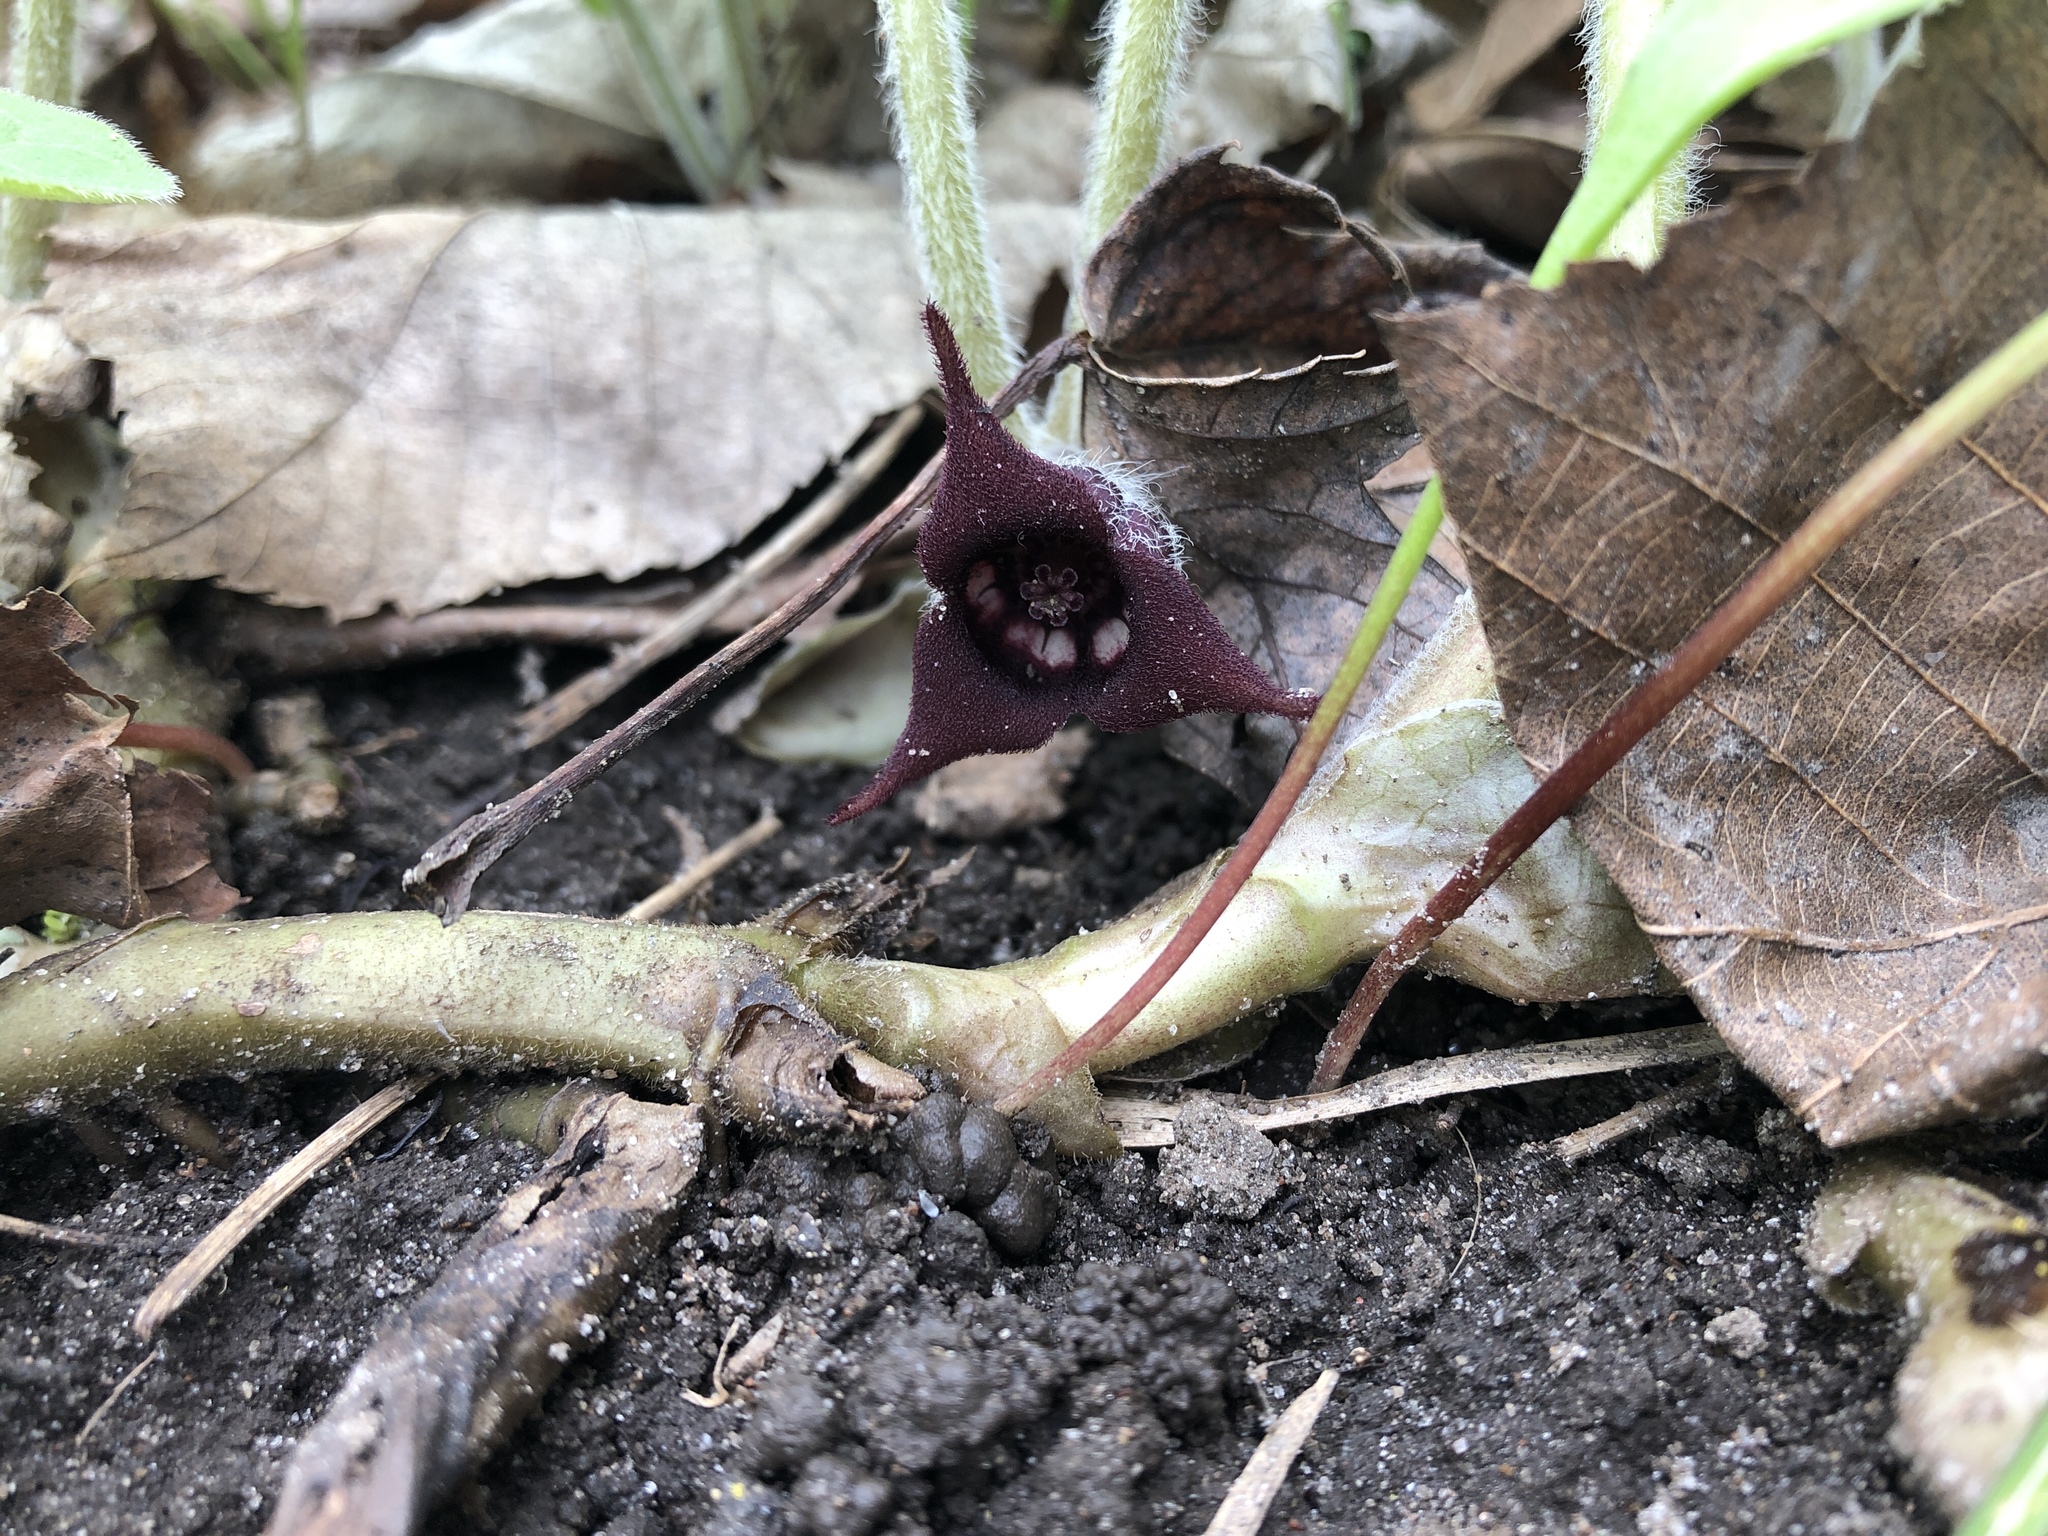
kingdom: Plantae
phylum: Tracheophyta
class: Magnoliopsida
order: Piperales
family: Aristolochiaceae
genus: Asarum
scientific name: Asarum canadense
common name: Wild ginger
